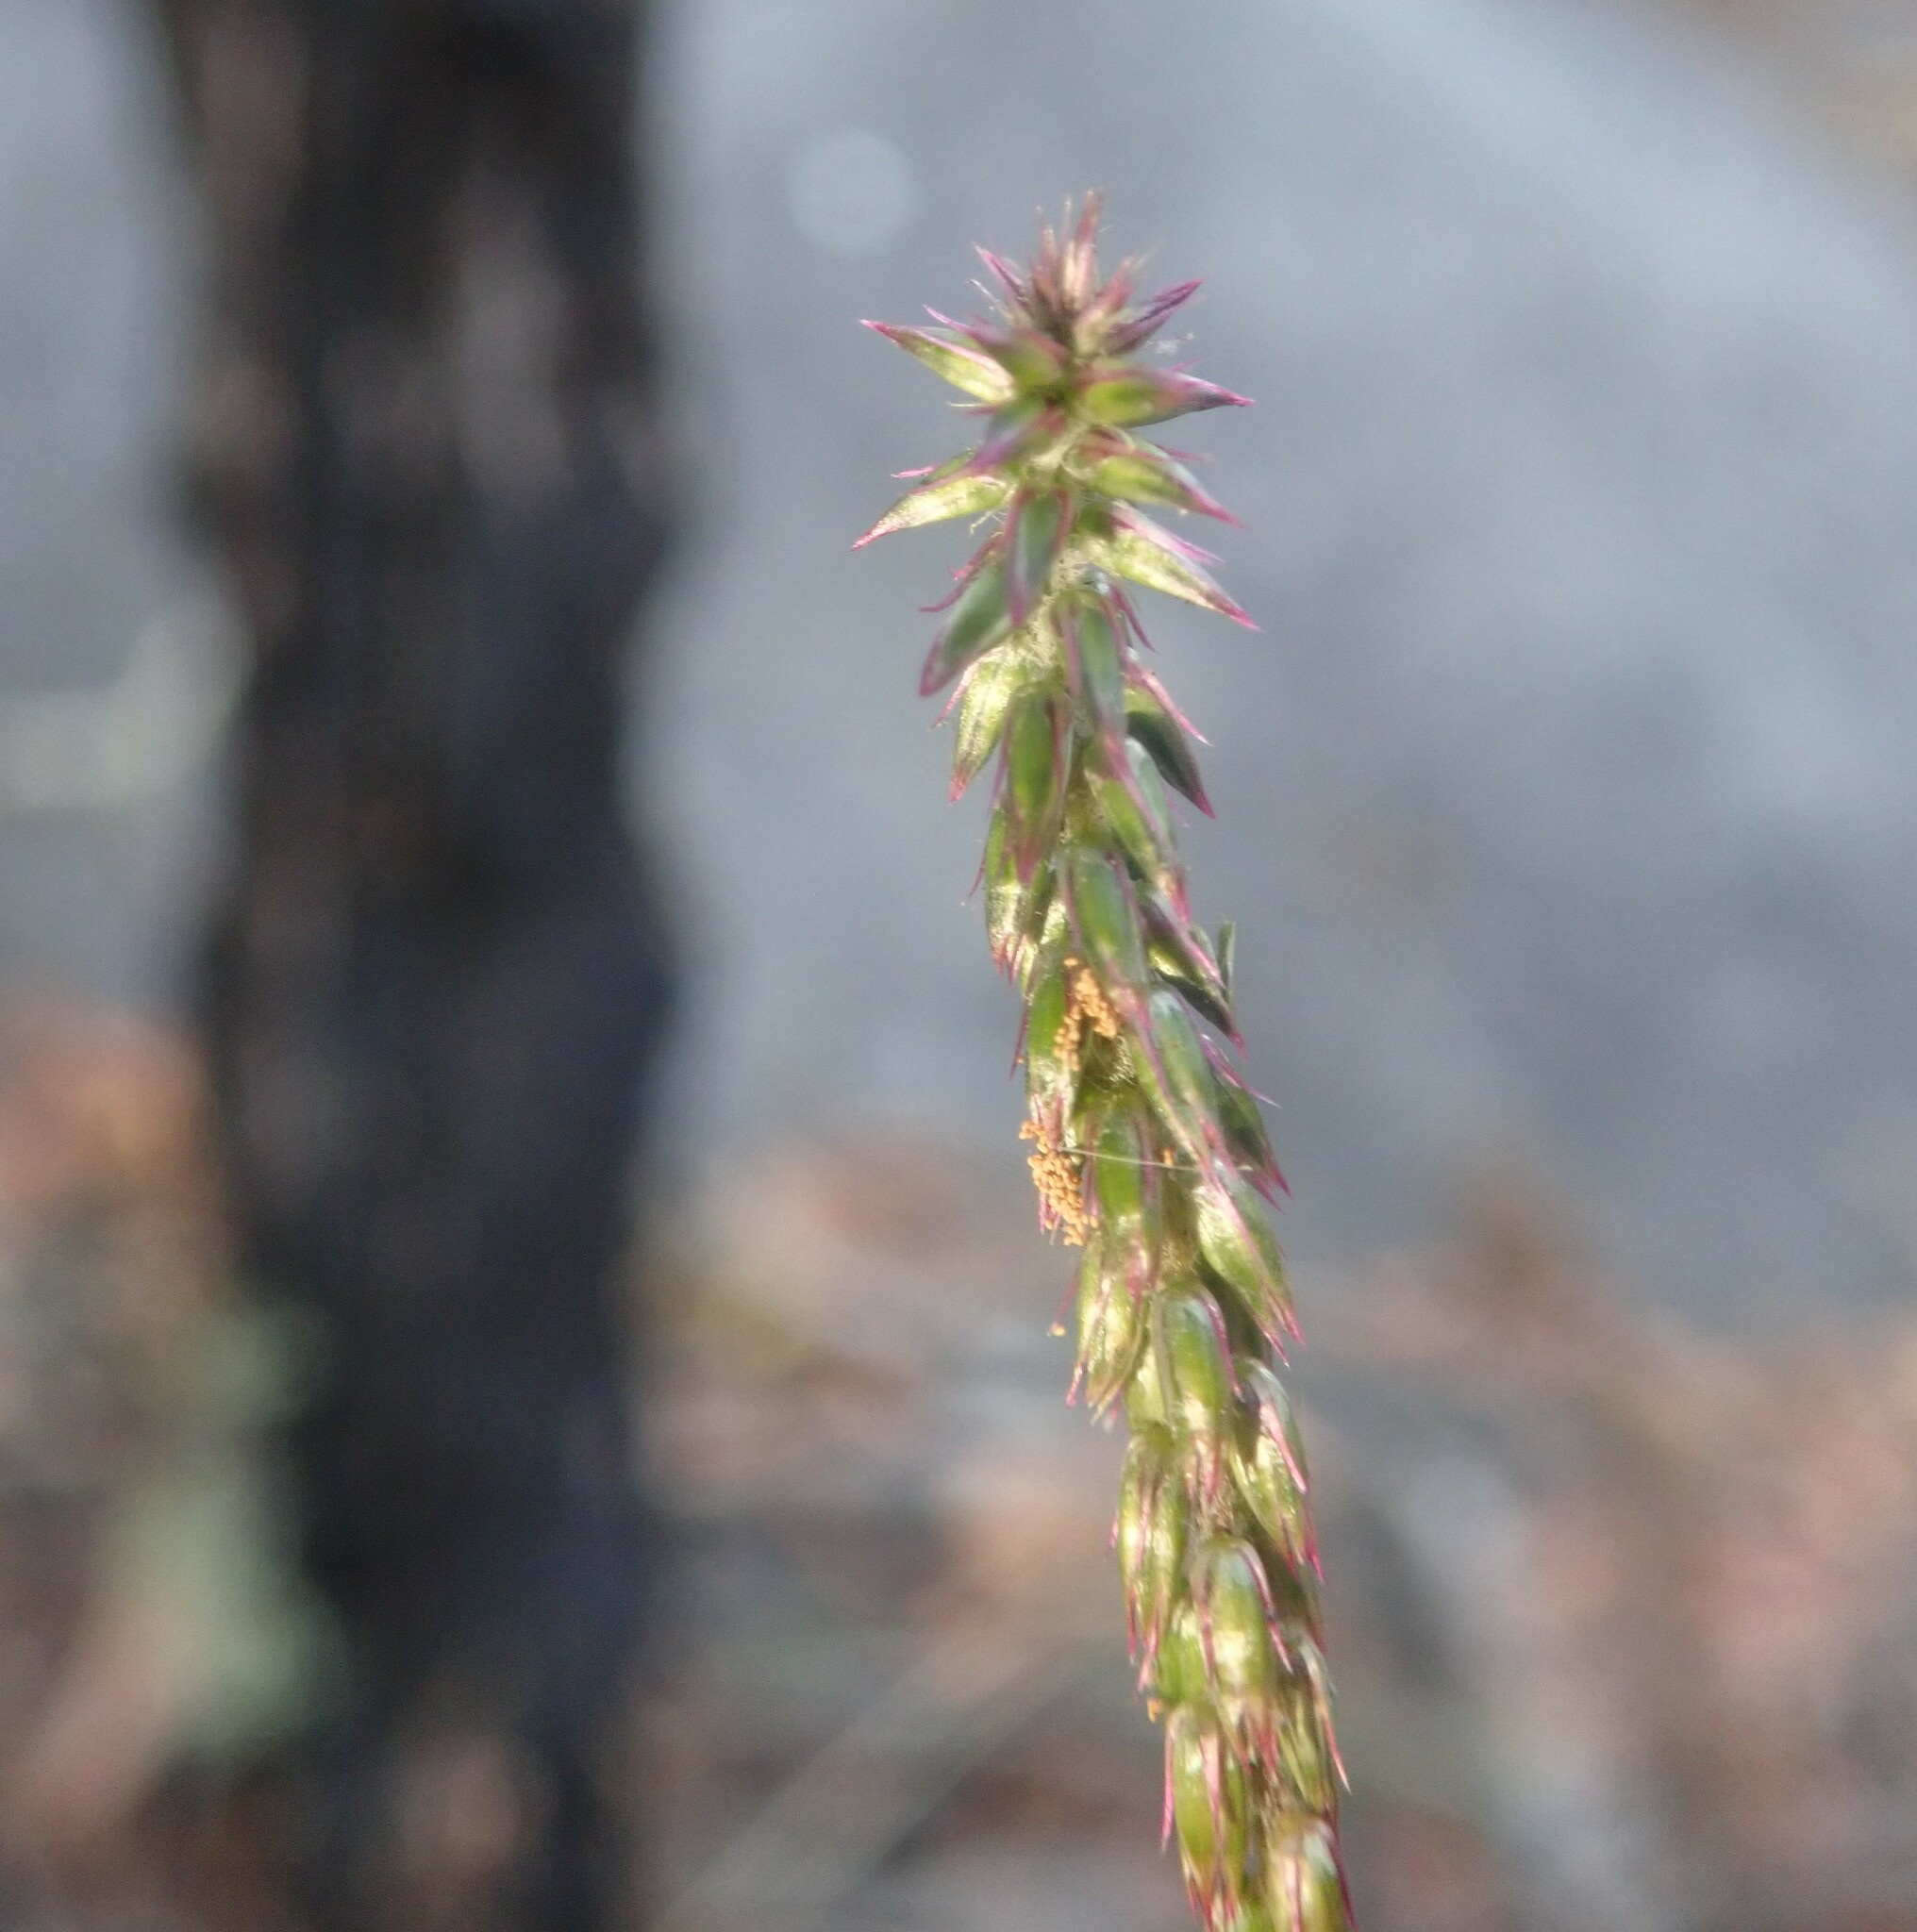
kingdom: Plantae
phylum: Tracheophyta
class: Magnoliopsida
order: Caryophyllales
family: Amaranthaceae
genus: Achyranthes
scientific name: Achyranthes aspera
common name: Devil's horsewhip
